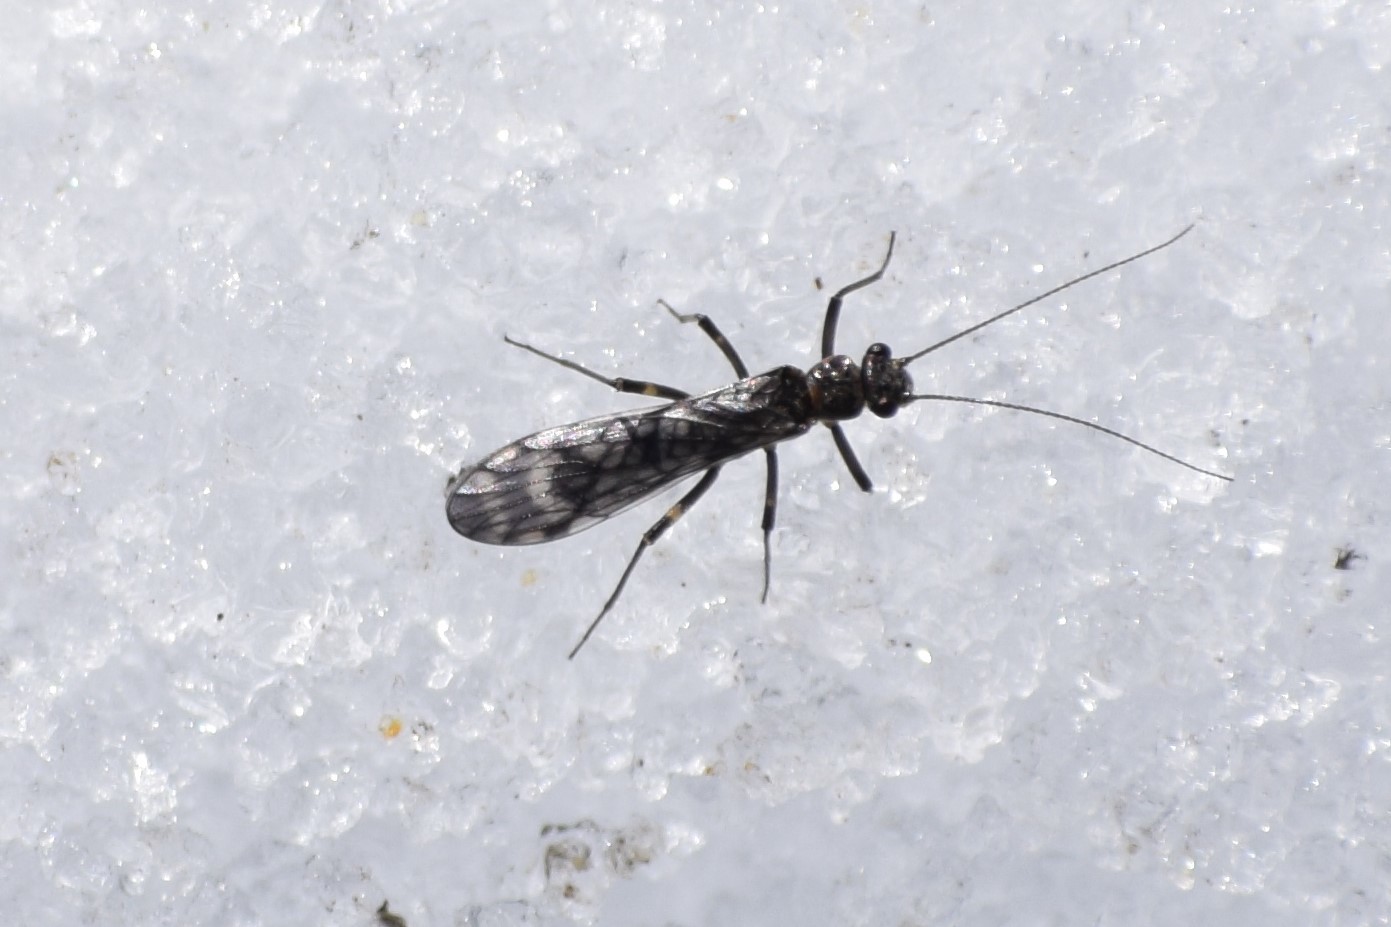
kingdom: Animalia
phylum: Arthropoda
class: Insecta
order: Plecoptera
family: Nemouridae
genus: Zapada
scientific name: Zapada cinctipes
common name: Common forestfly
